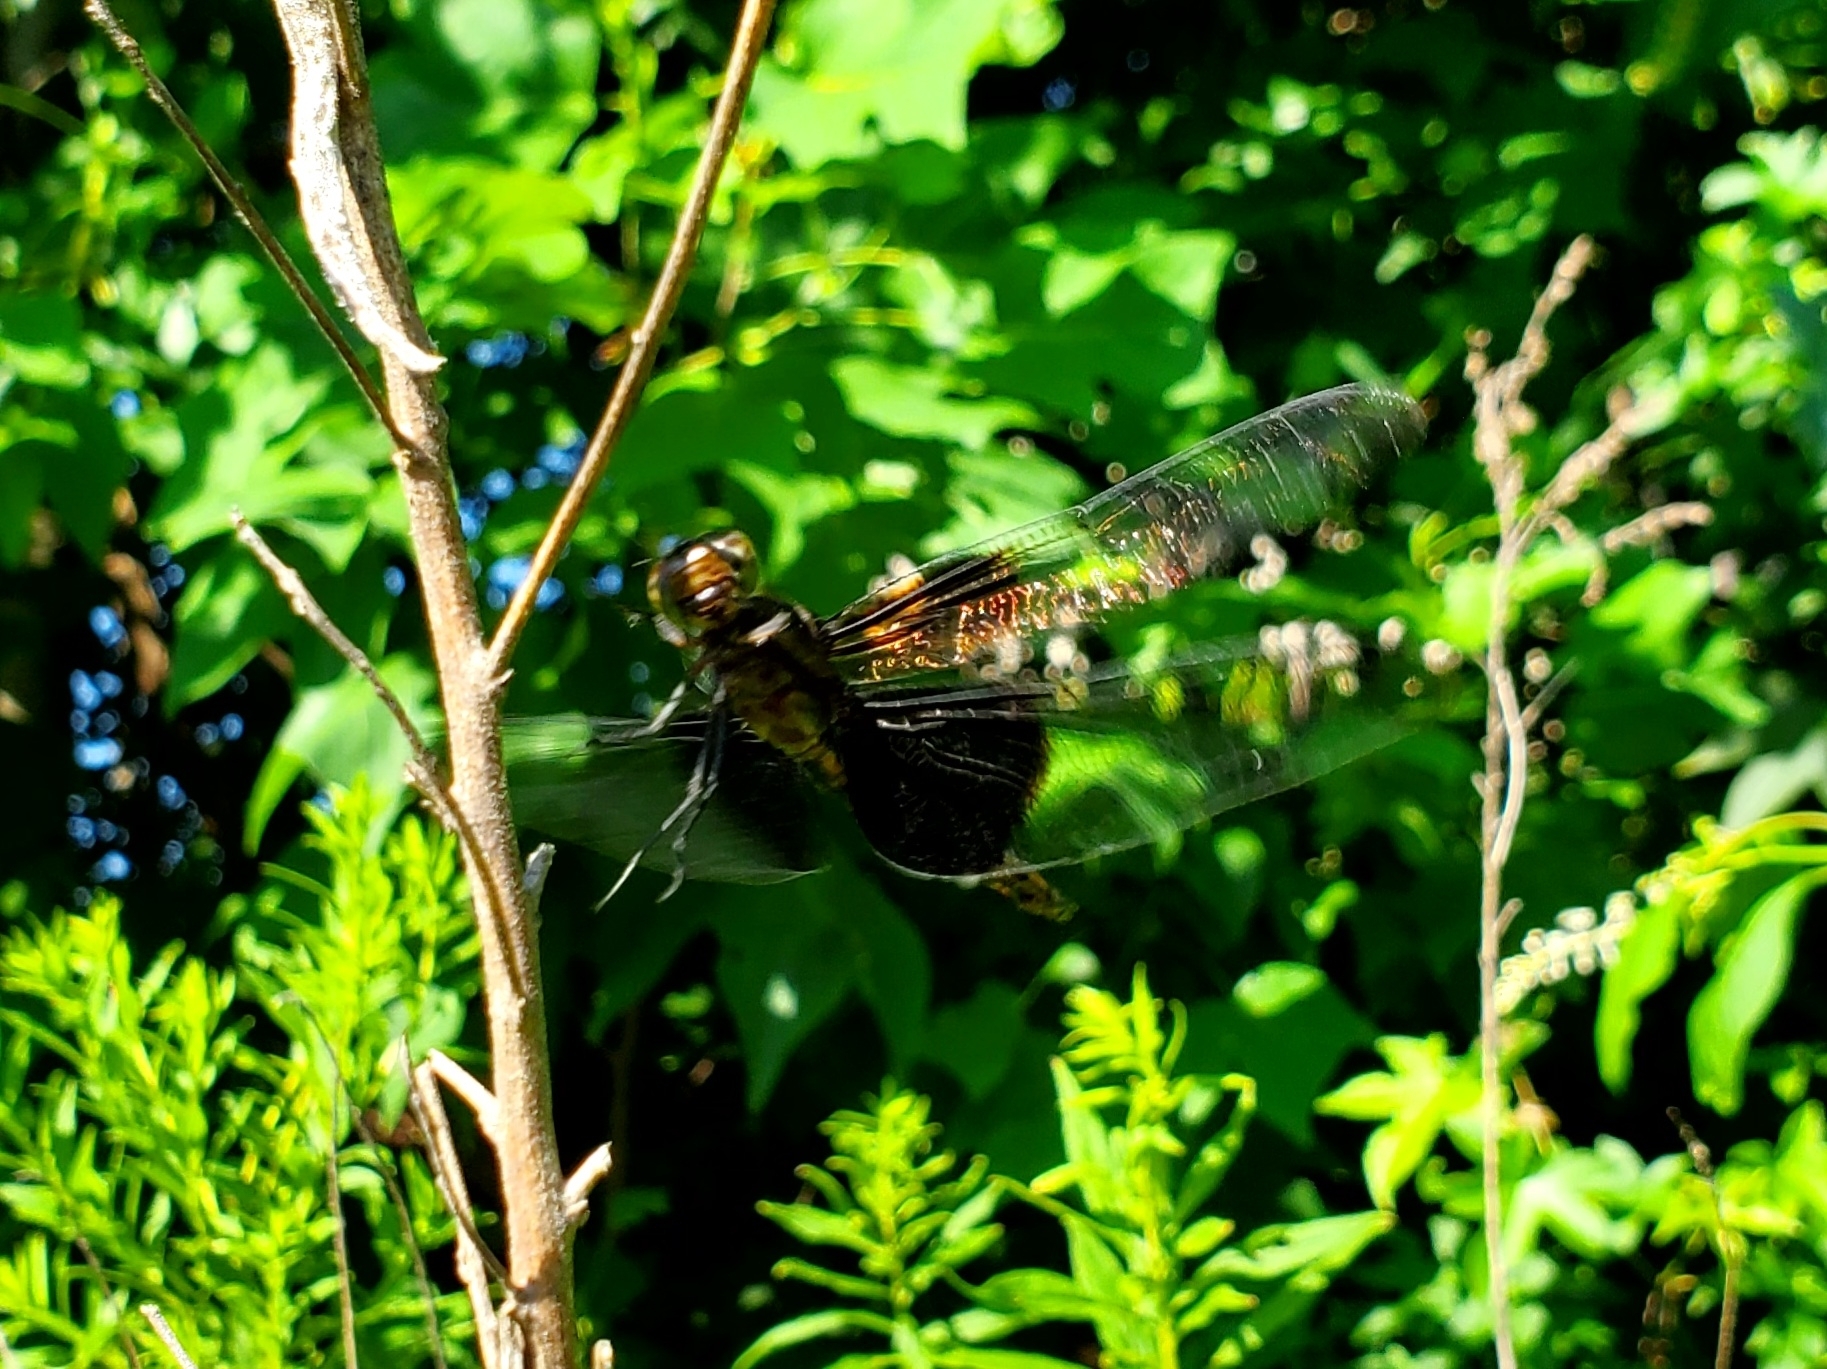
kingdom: Animalia
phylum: Arthropoda
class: Insecta
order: Odonata
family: Libellulidae
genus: Libellula
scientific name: Libellula luctuosa
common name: Widow skimmer
